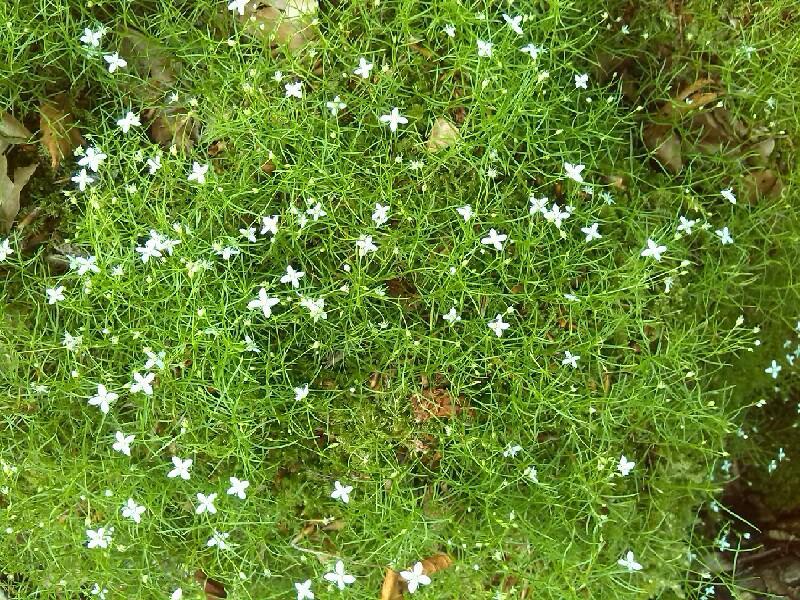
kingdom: Plantae
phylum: Tracheophyta
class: Magnoliopsida
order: Caryophyllales
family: Caryophyllaceae
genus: Moehringia
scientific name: Moehringia muscosa
